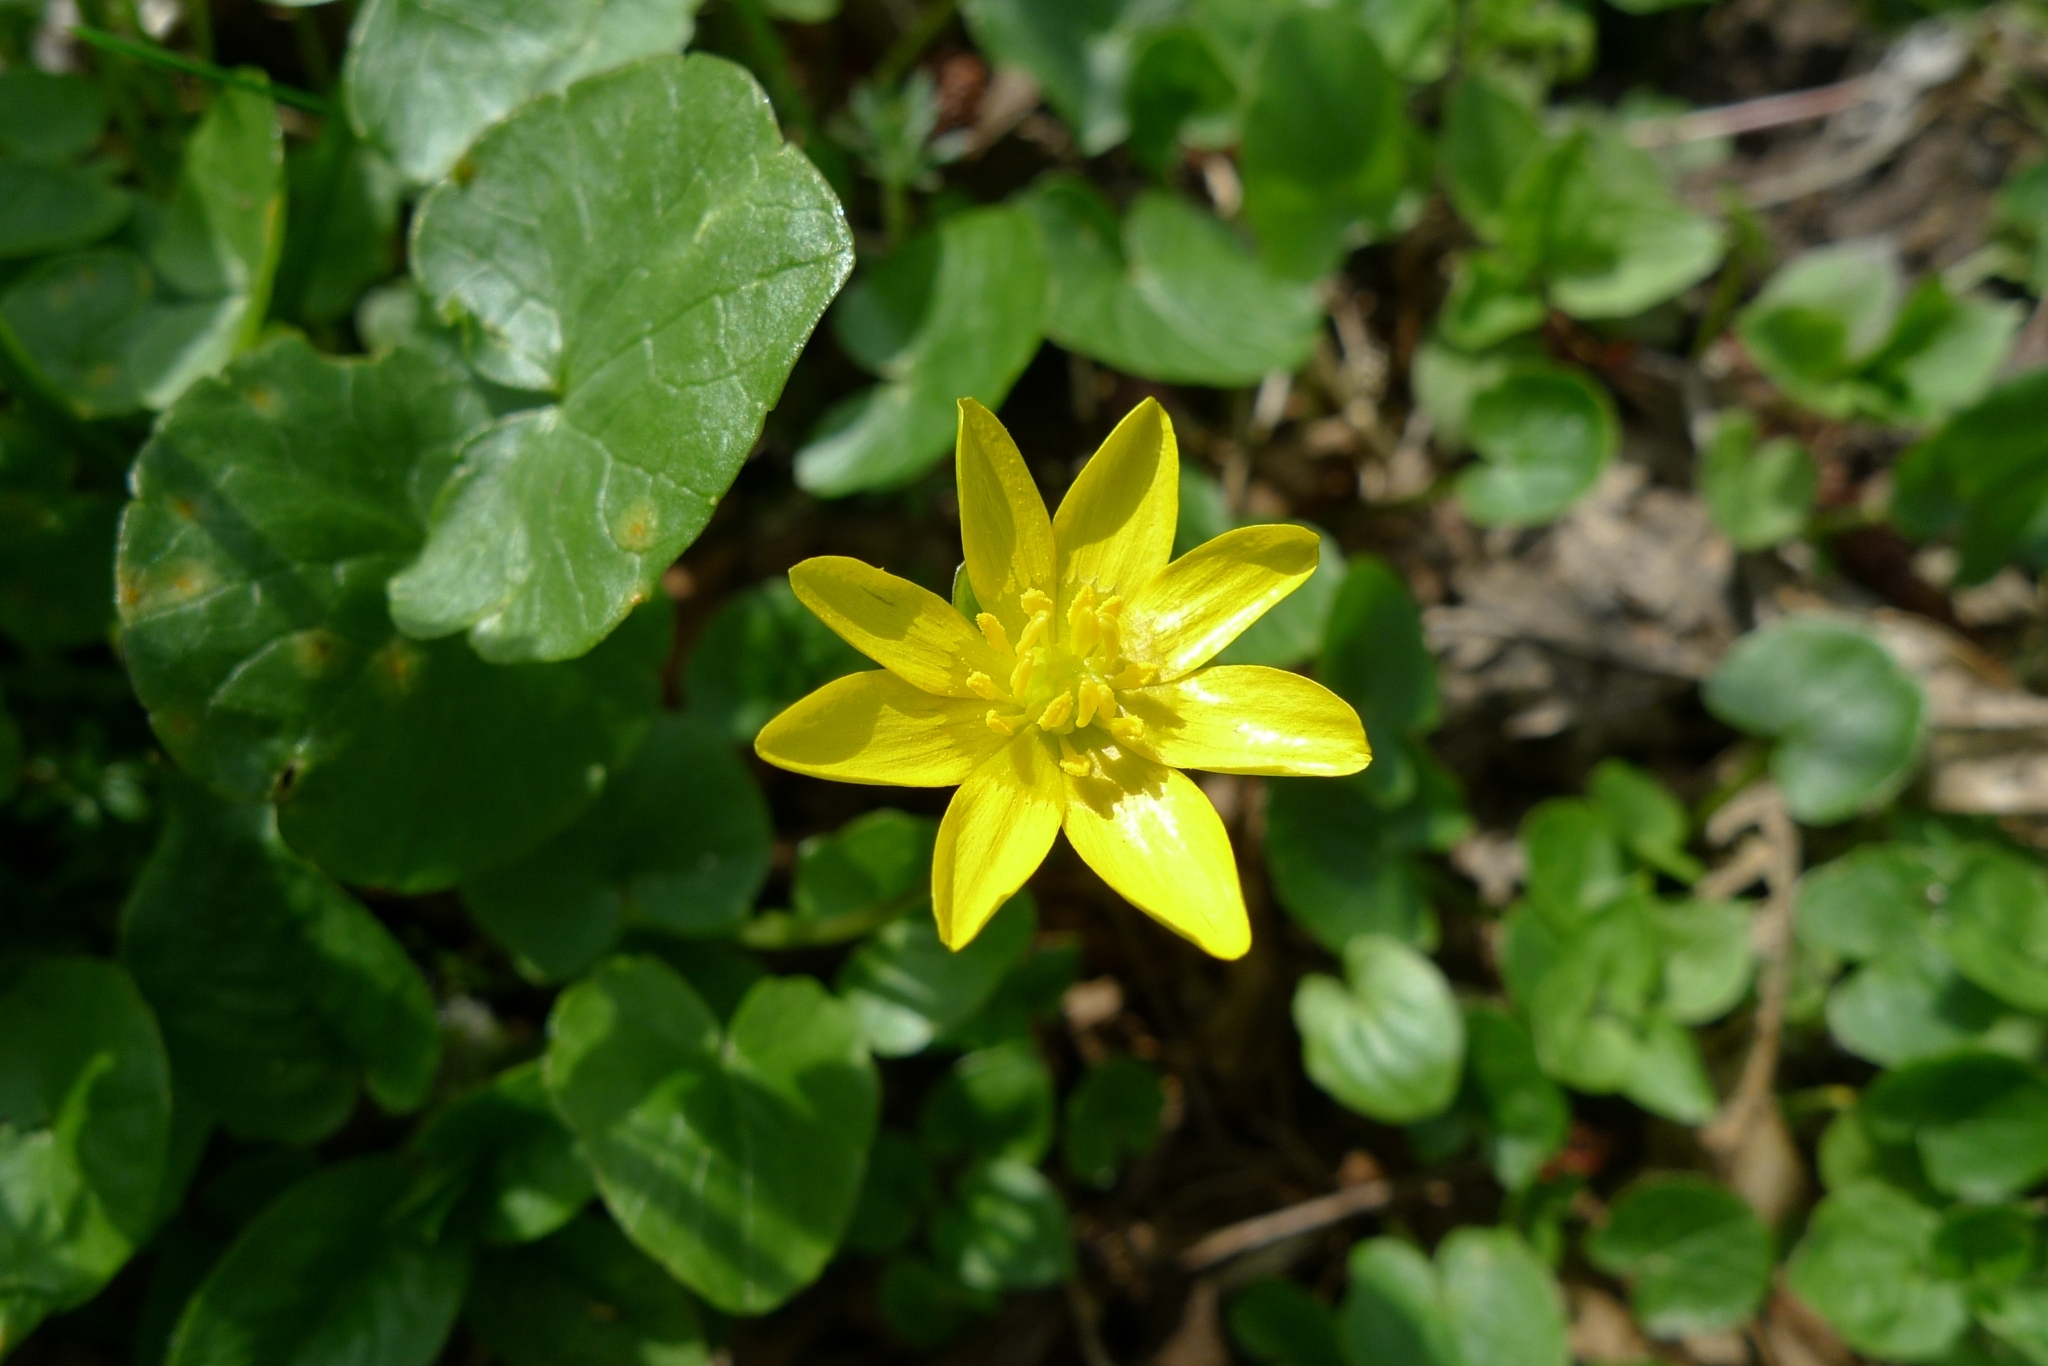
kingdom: Plantae
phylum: Tracheophyta
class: Magnoliopsida
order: Ranunculales
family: Ranunculaceae
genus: Ficaria
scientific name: Ficaria verna
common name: Lesser celandine
